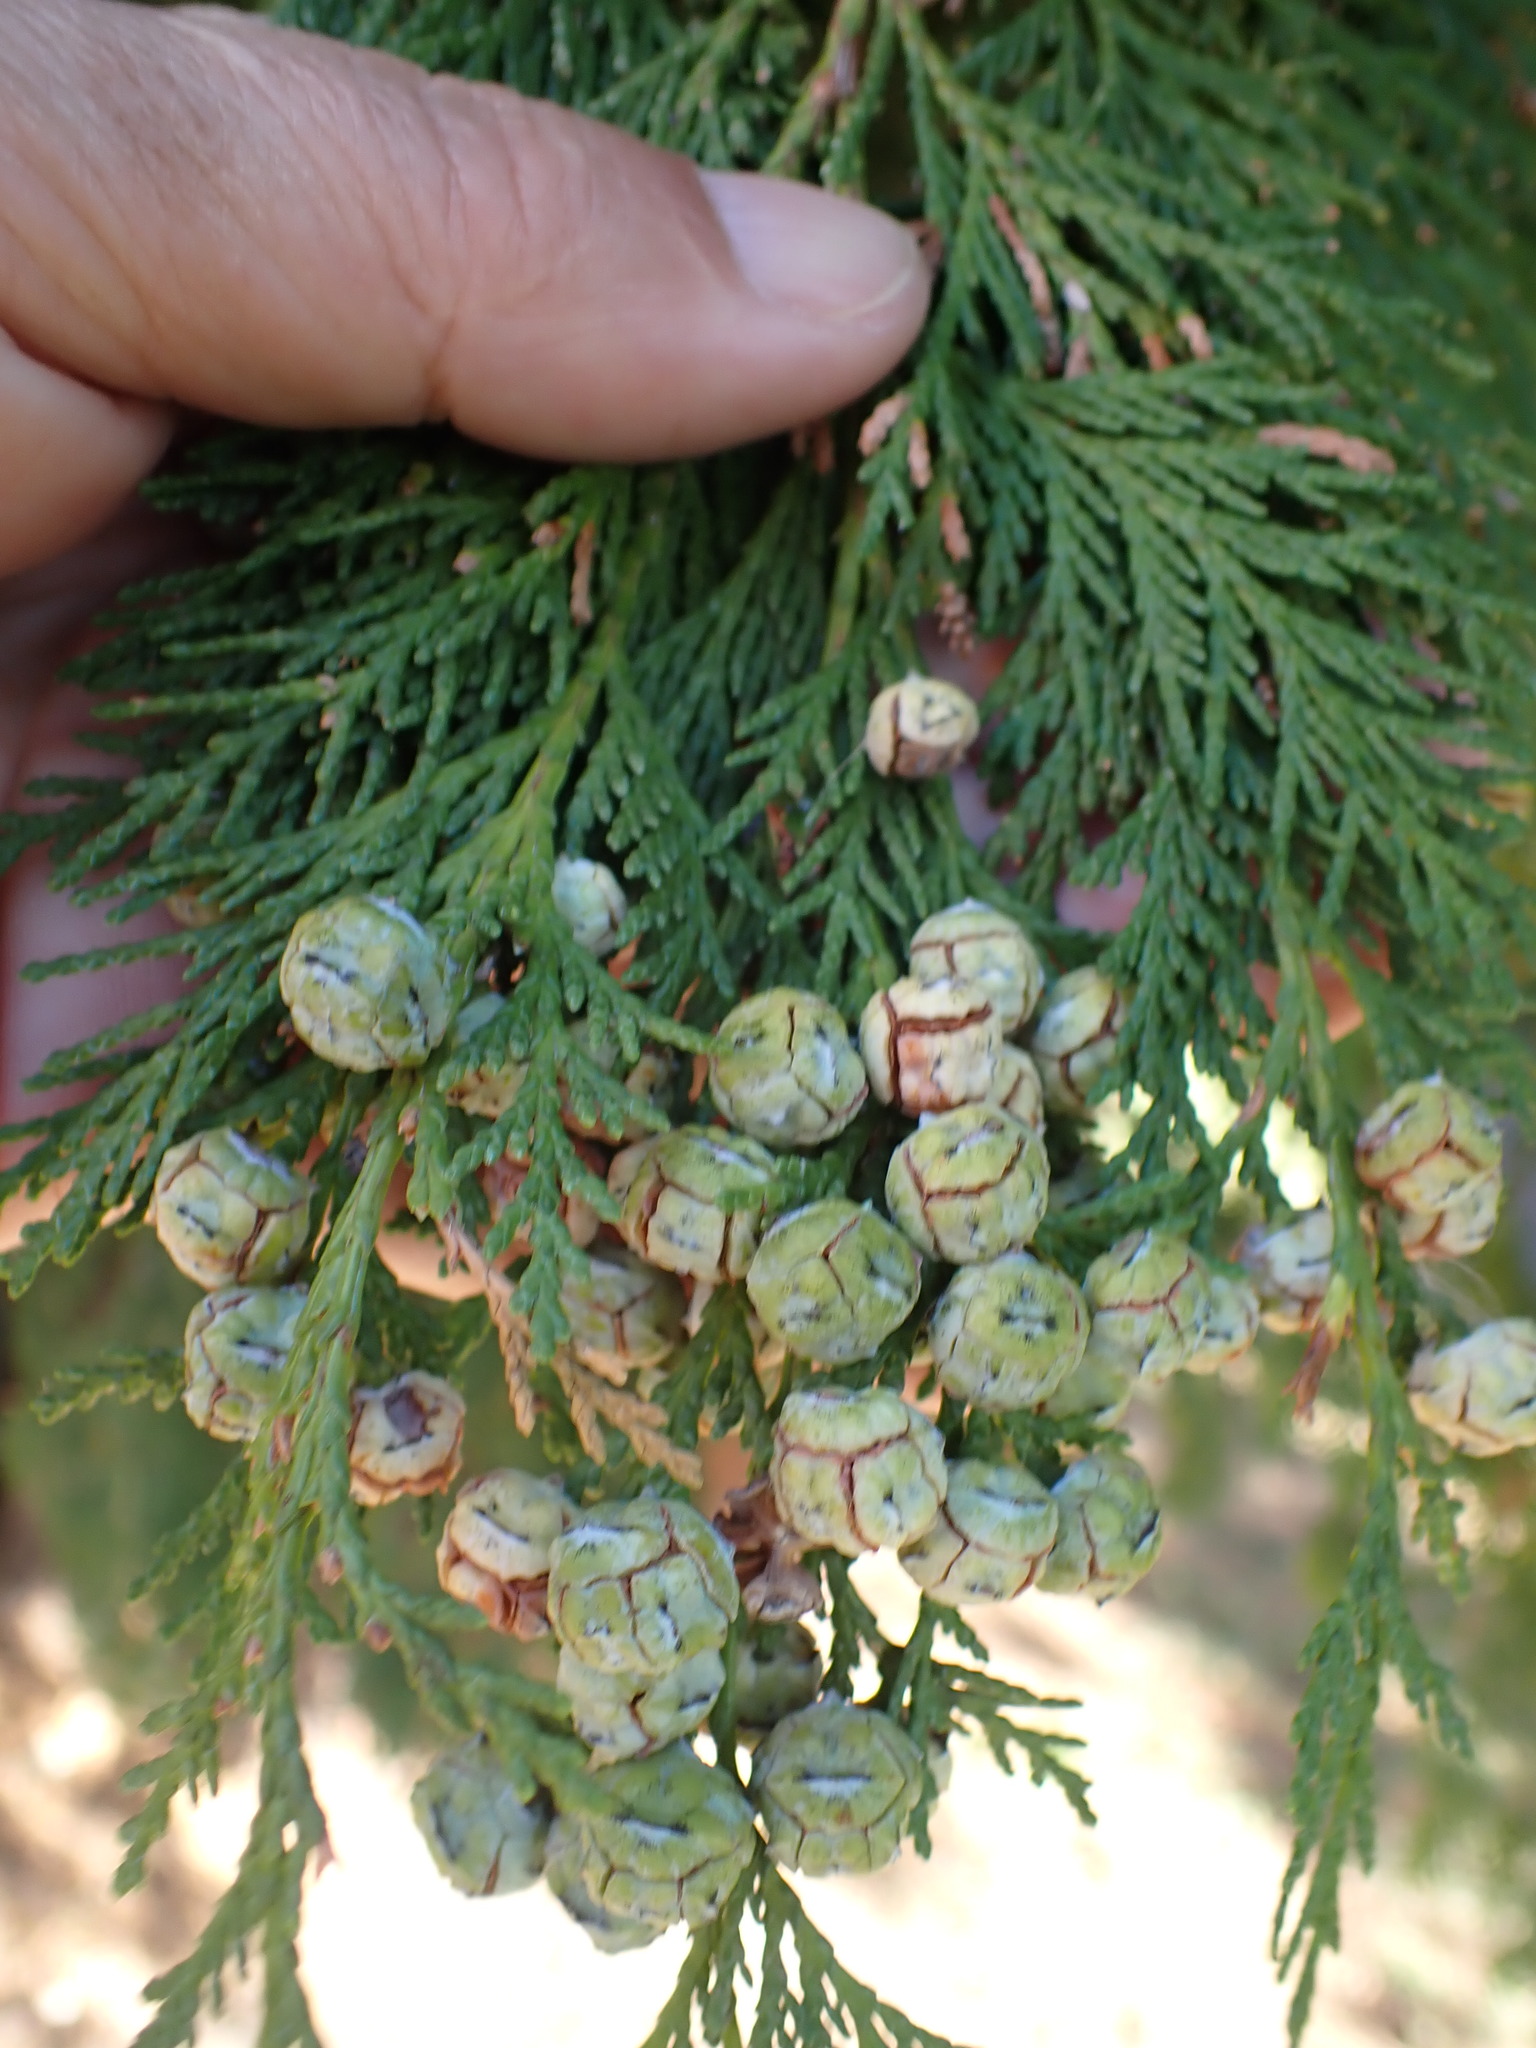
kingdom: Plantae
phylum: Tracheophyta
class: Pinopsida
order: Pinales
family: Cupressaceae
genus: Chamaecyparis
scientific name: Chamaecyparis lawsoniana
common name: Lawson's cypress
